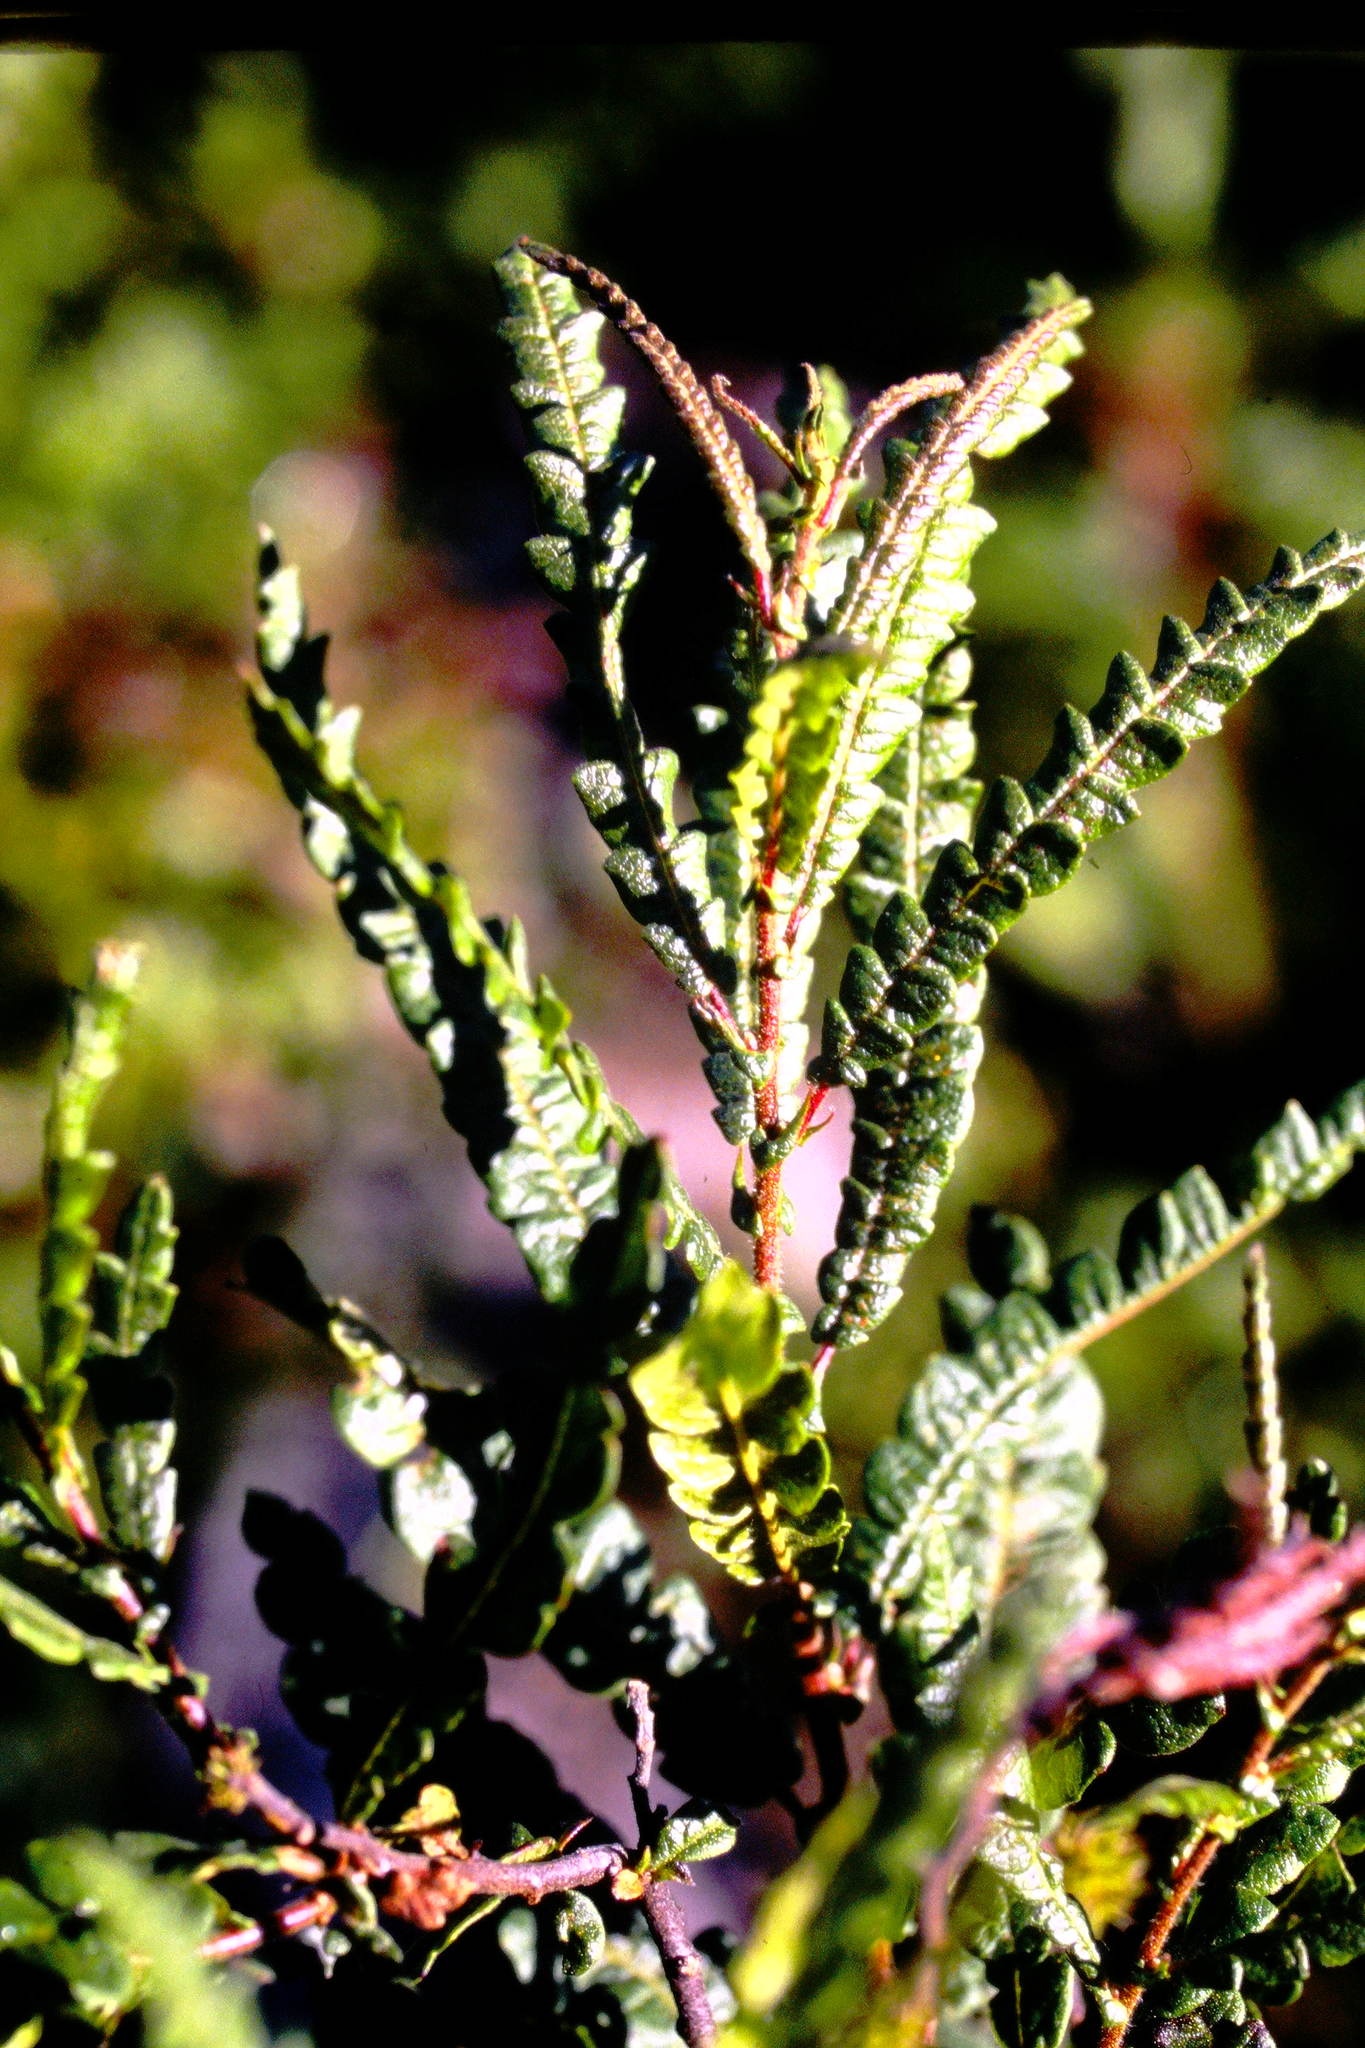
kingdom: Plantae
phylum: Tracheophyta
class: Magnoliopsida
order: Fagales
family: Myricaceae
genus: Comptonia
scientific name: Comptonia peregrina
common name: Sweet-fern
